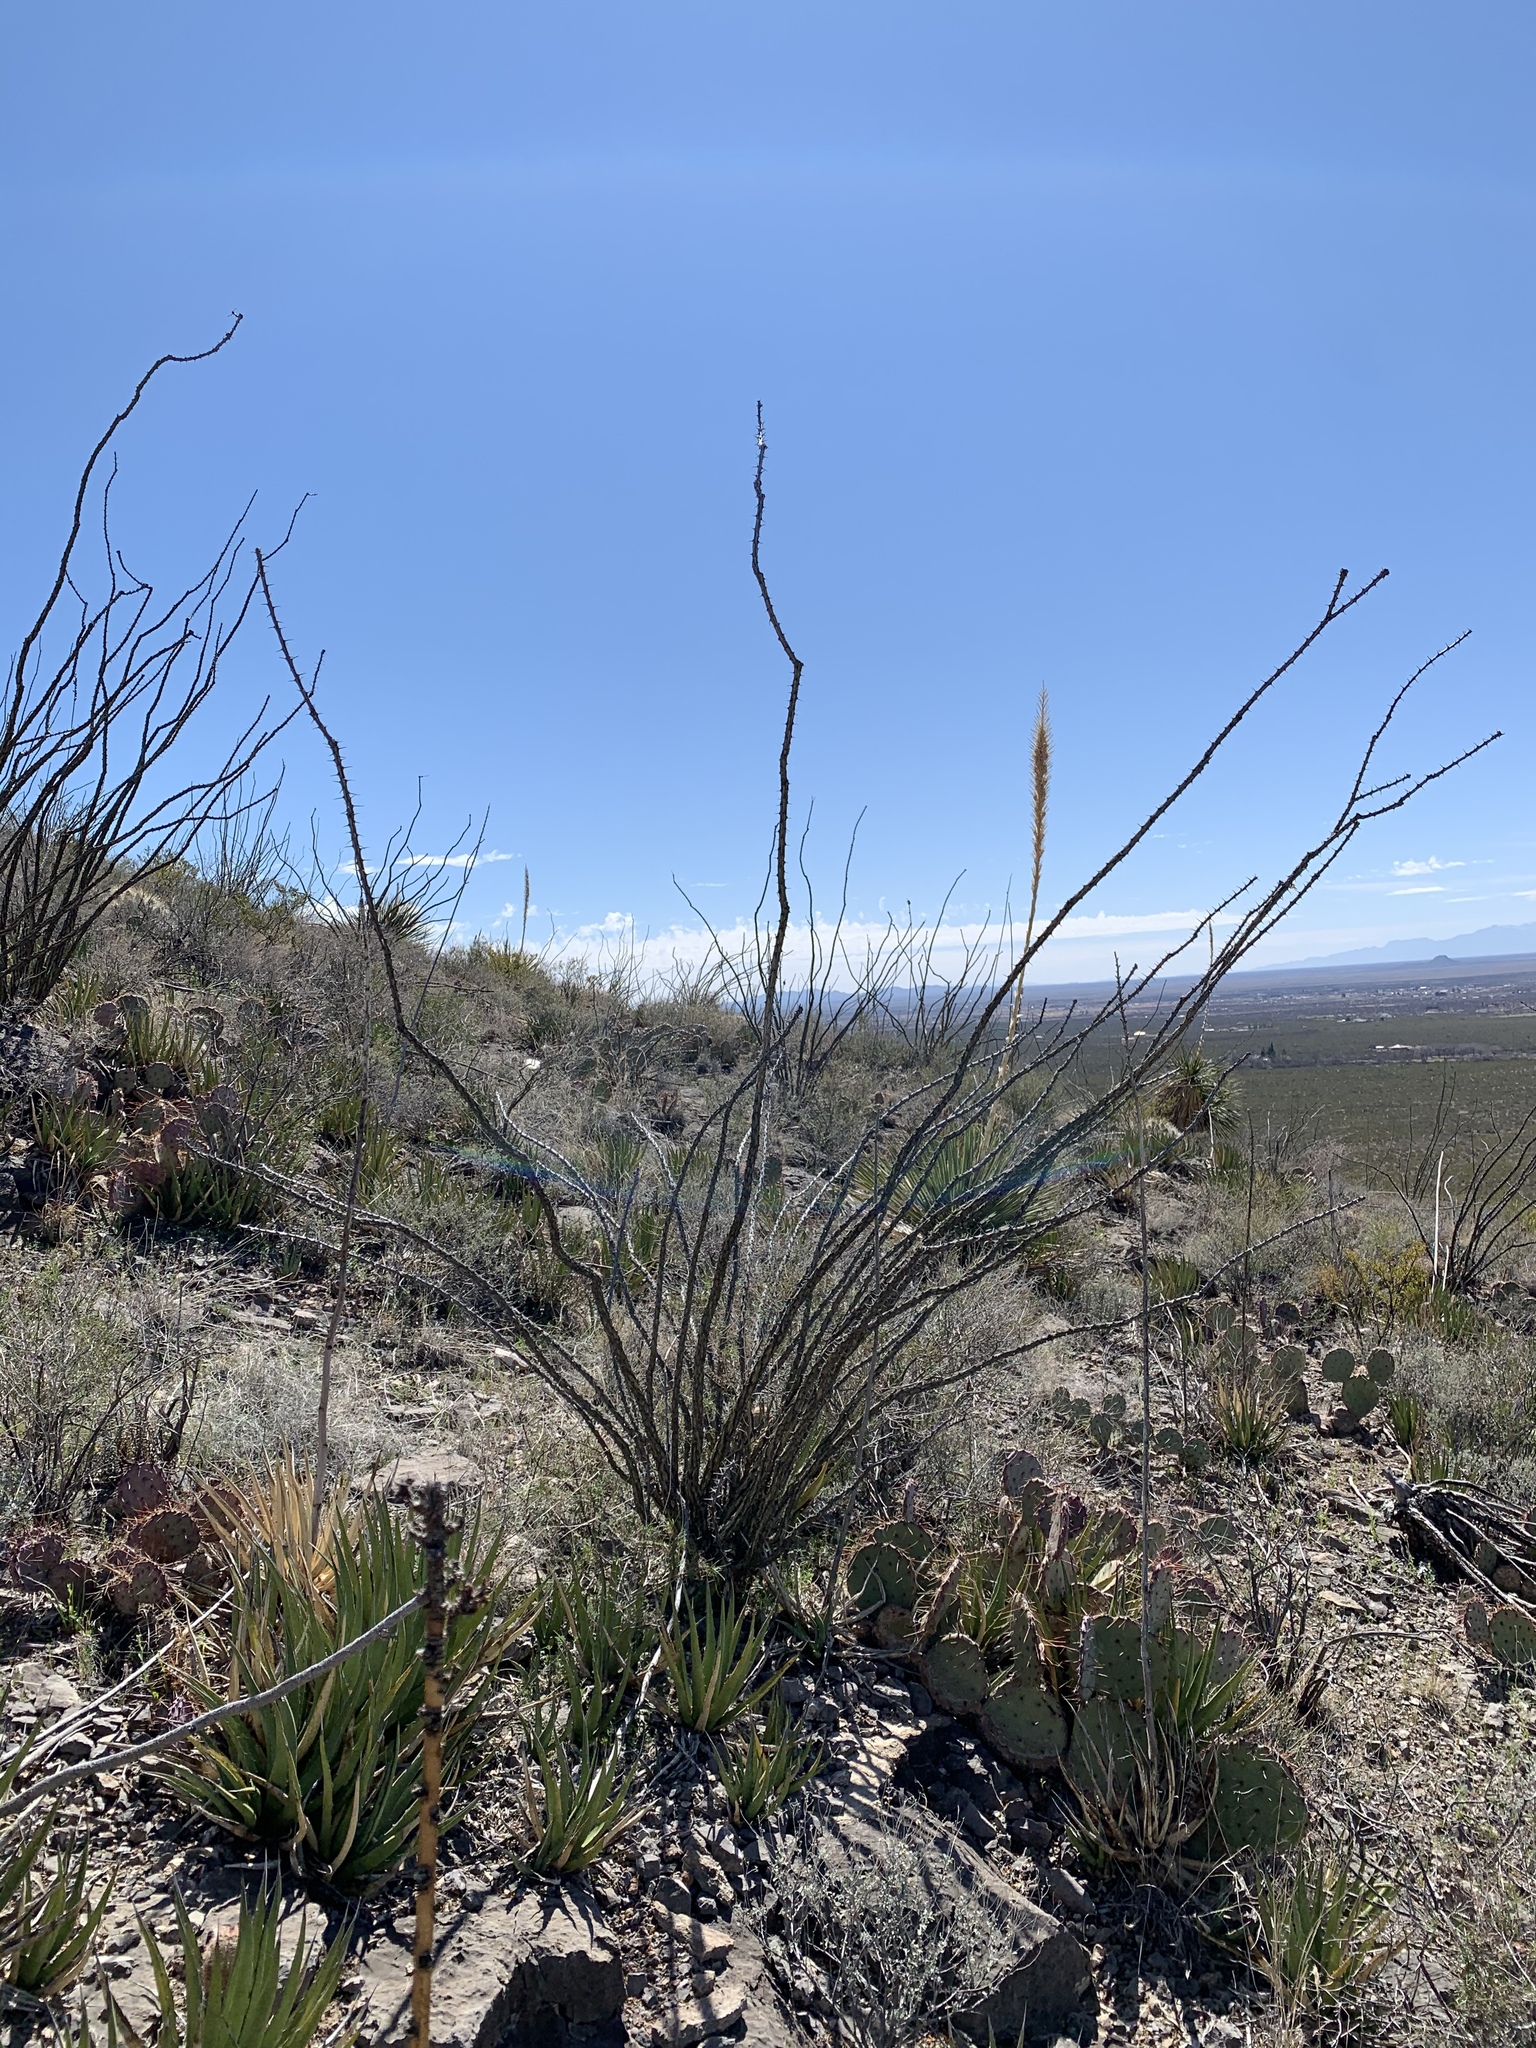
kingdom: Plantae
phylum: Tracheophyta
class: Liliopsida
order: Asparagales
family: Asparagaceae
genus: Agave
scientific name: Agave lechuguilla
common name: Lecheguilla agave
